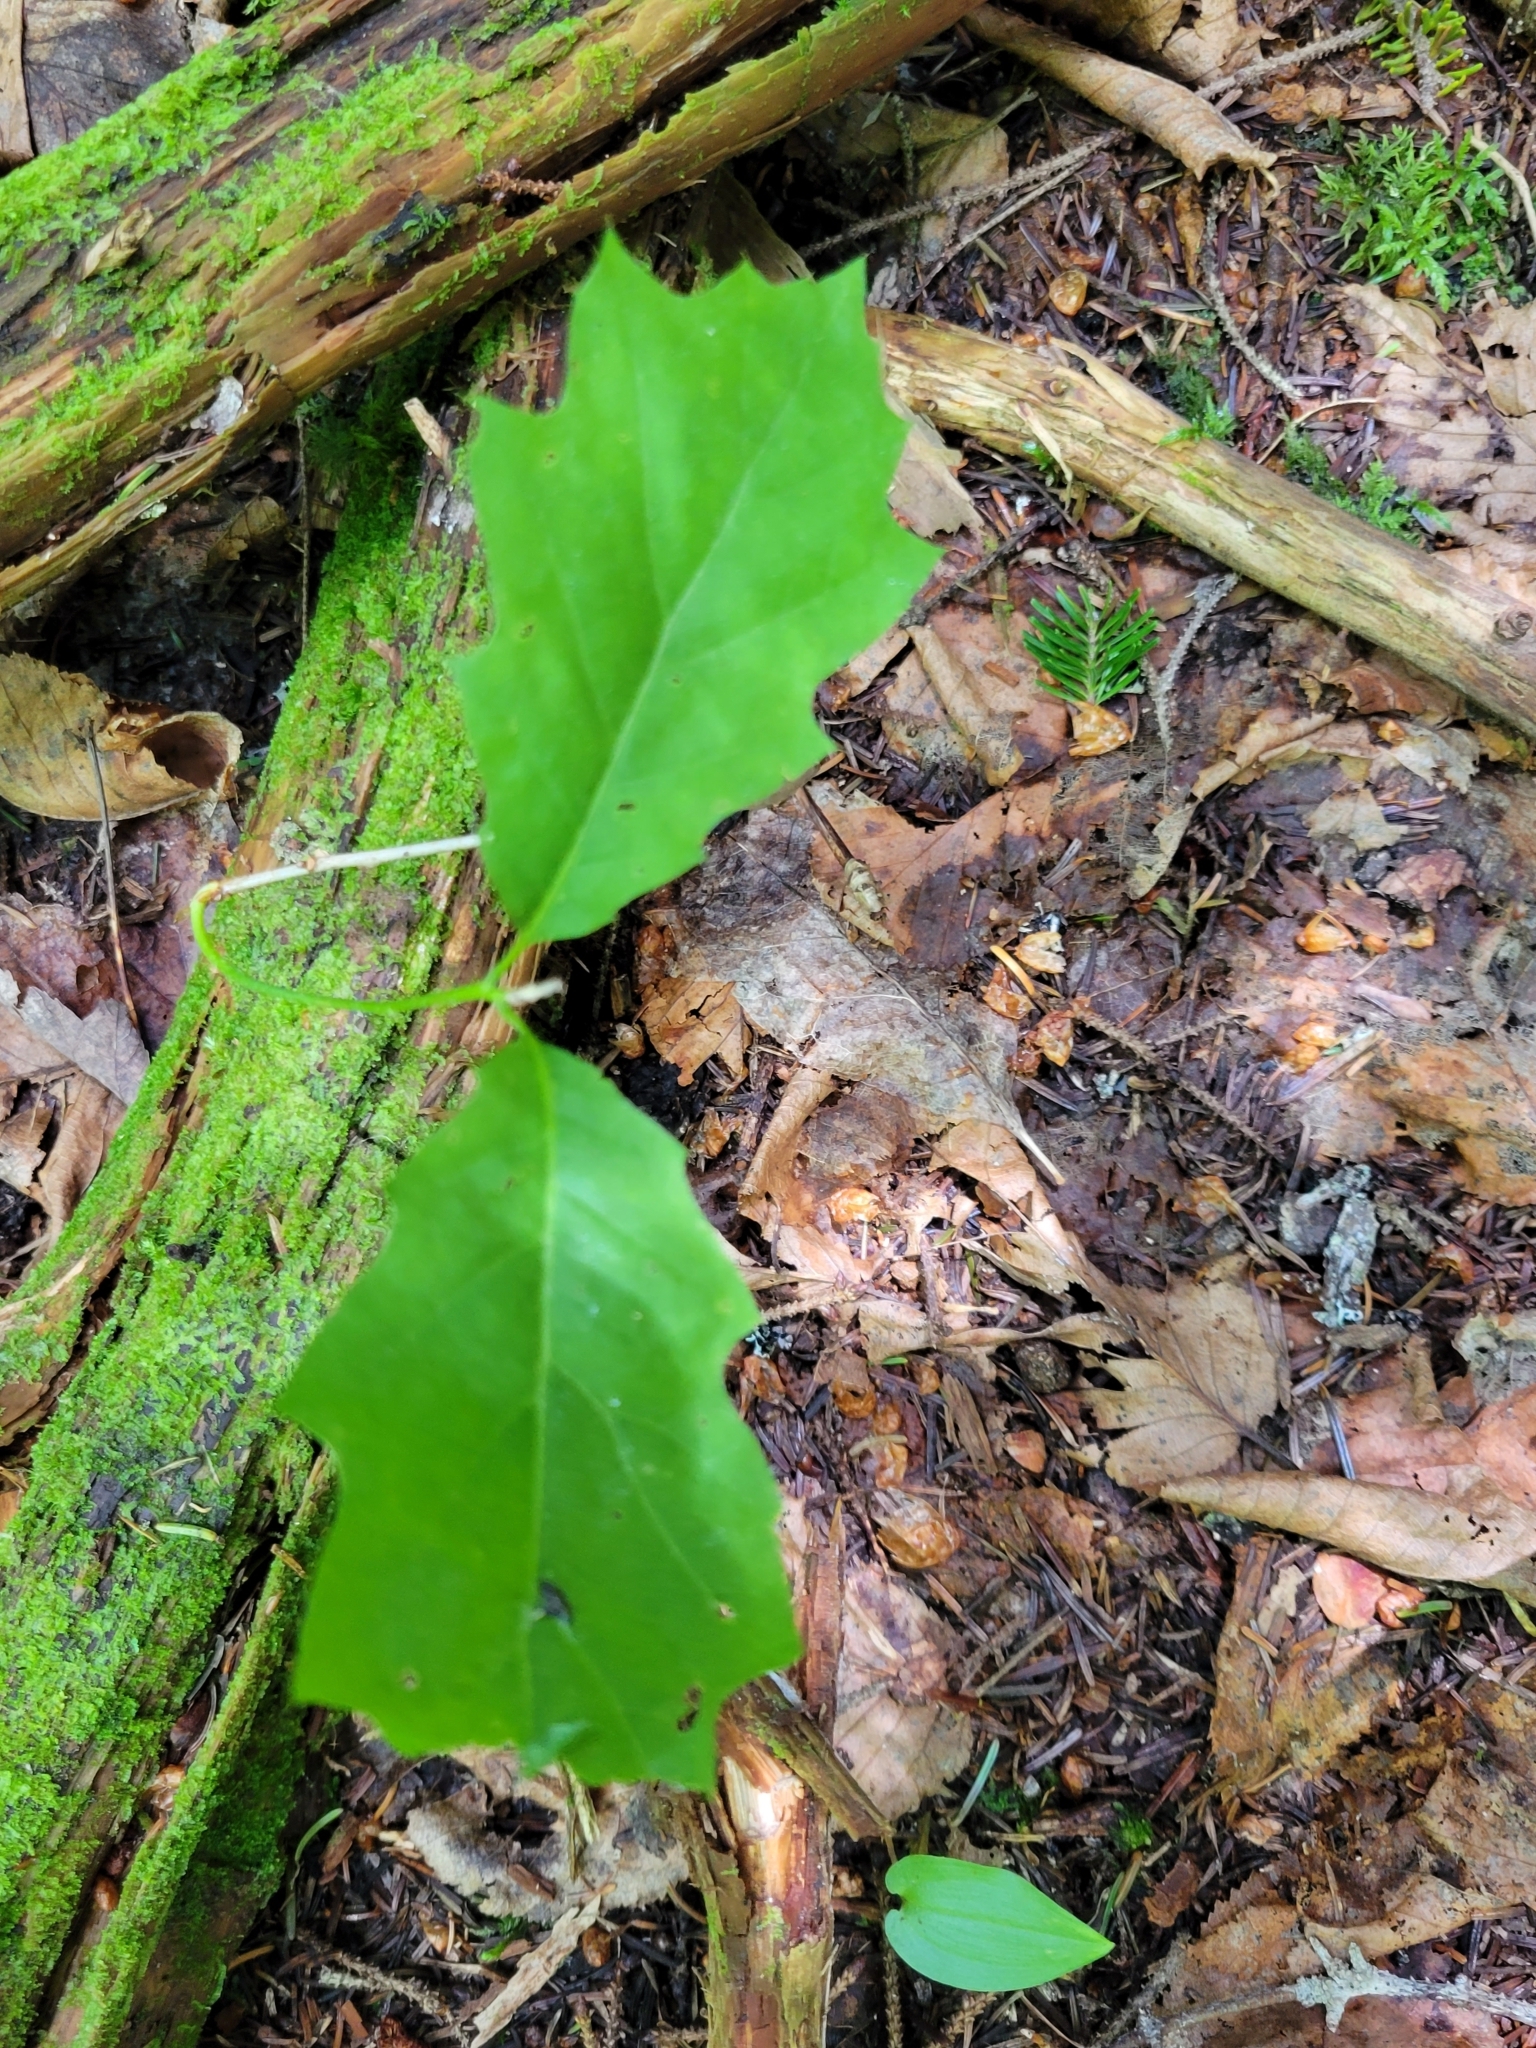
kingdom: Plantae
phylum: Tracheophyta
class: Magnoliopsida
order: Fagales
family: Fagaceae
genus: Quercus
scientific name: Quercus rubra
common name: Red oak
